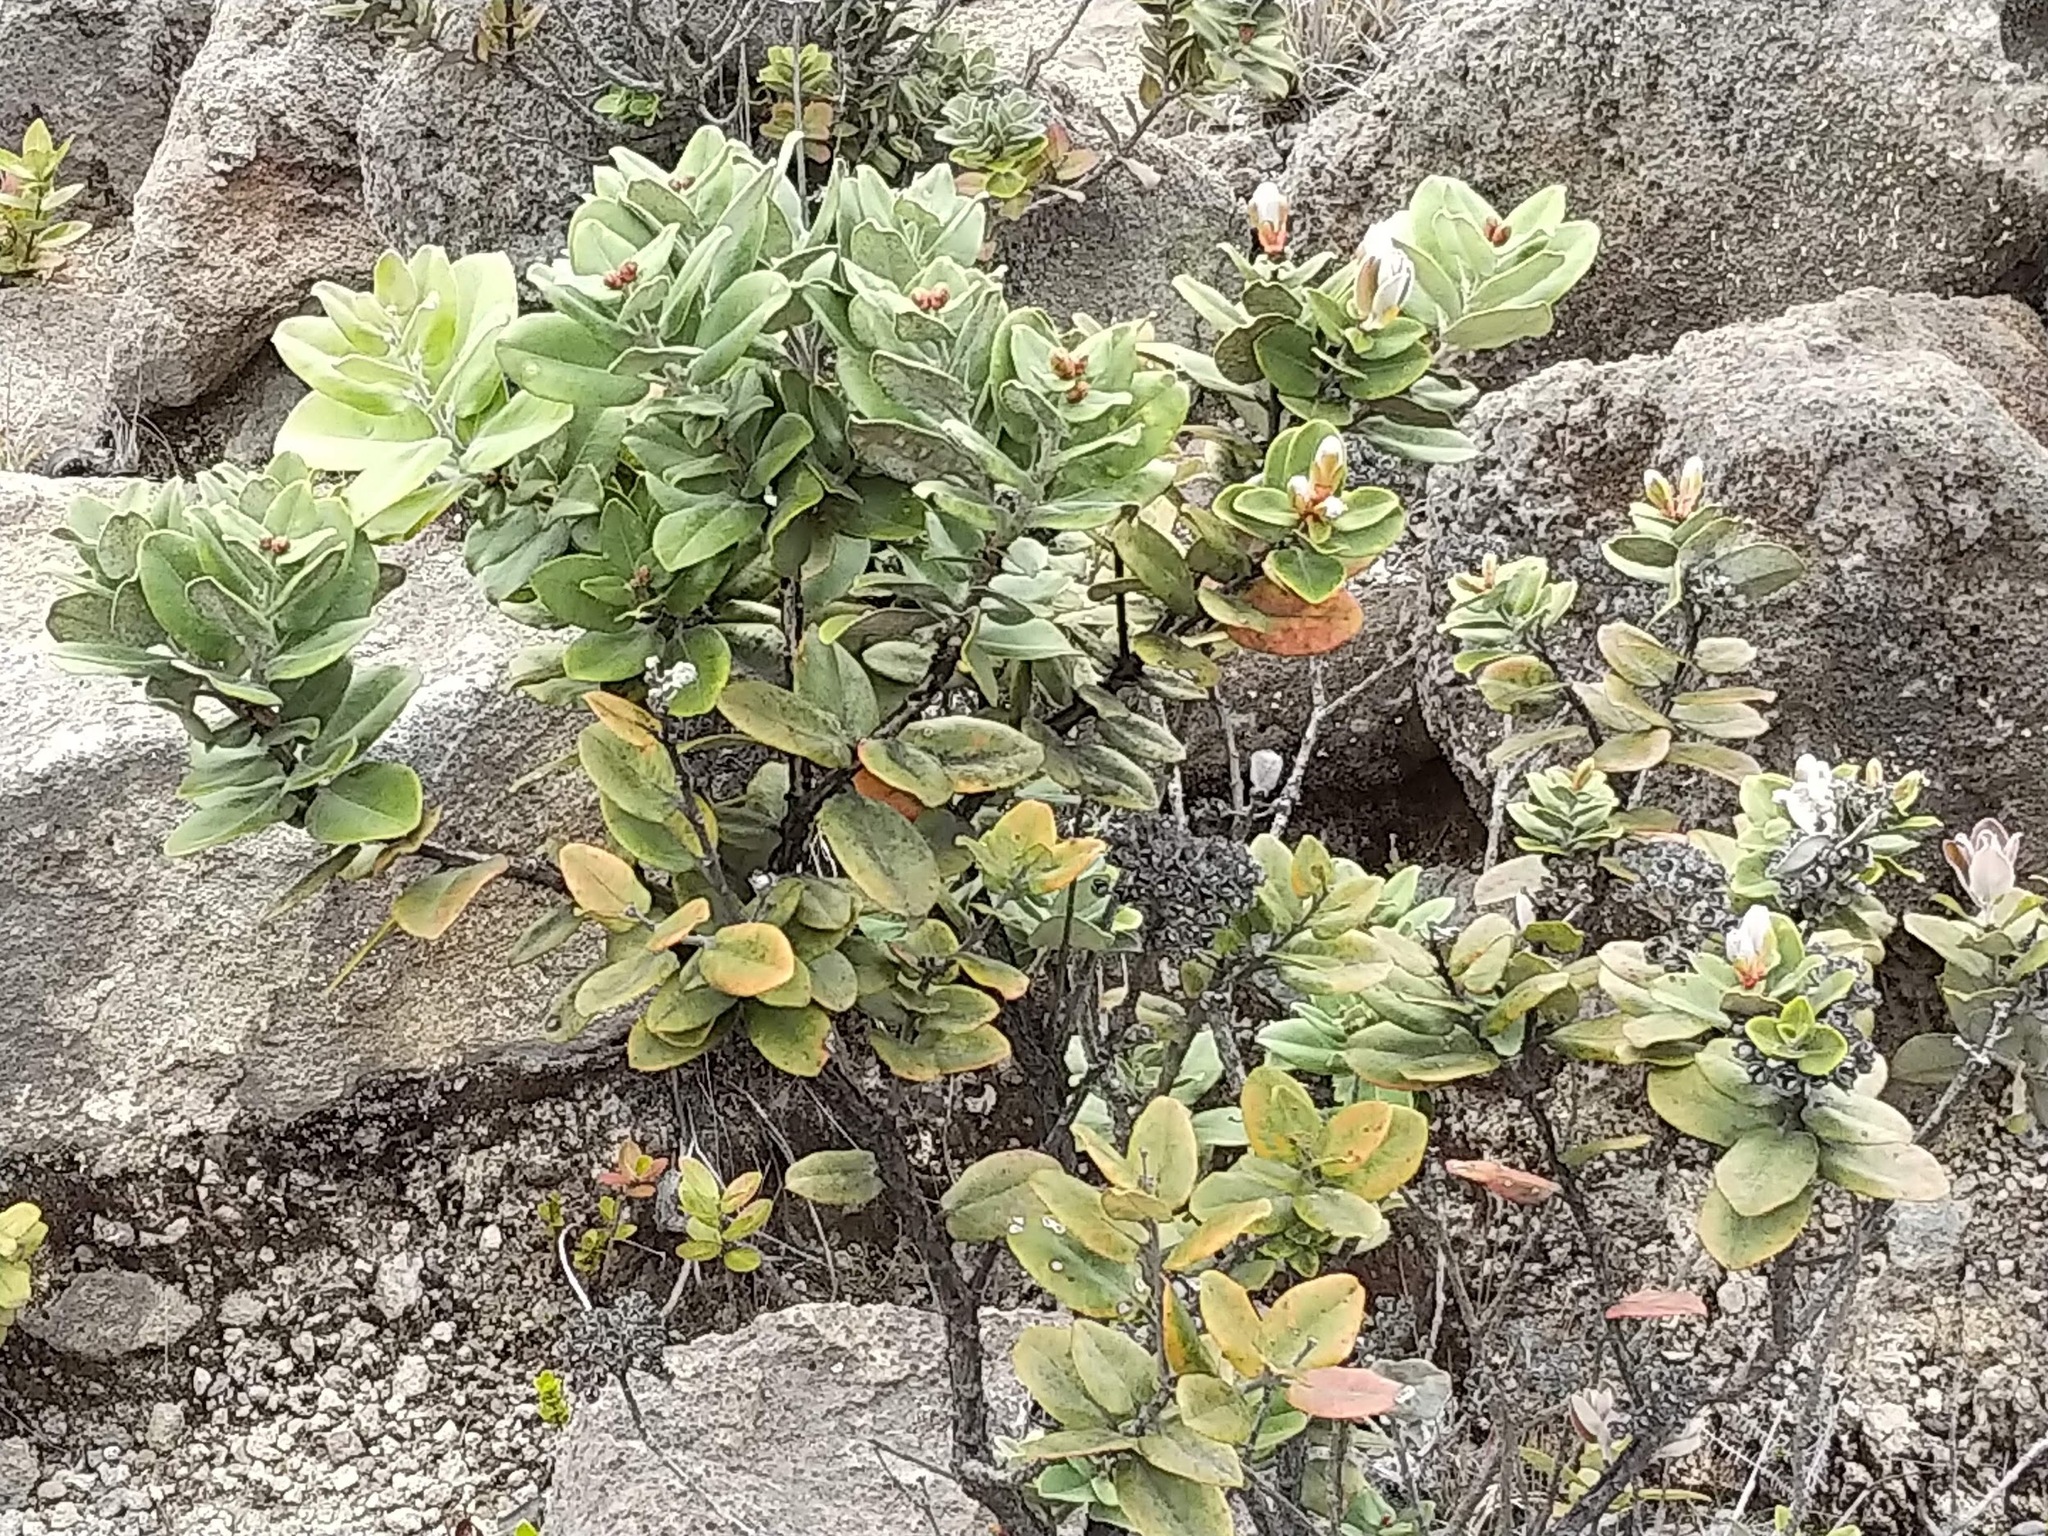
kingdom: Plantae
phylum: Tracheophyta
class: Magnoliopsida
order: Myrtales
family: Myrtaceae
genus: Metrosideros
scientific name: Metrosideros polymorpha
